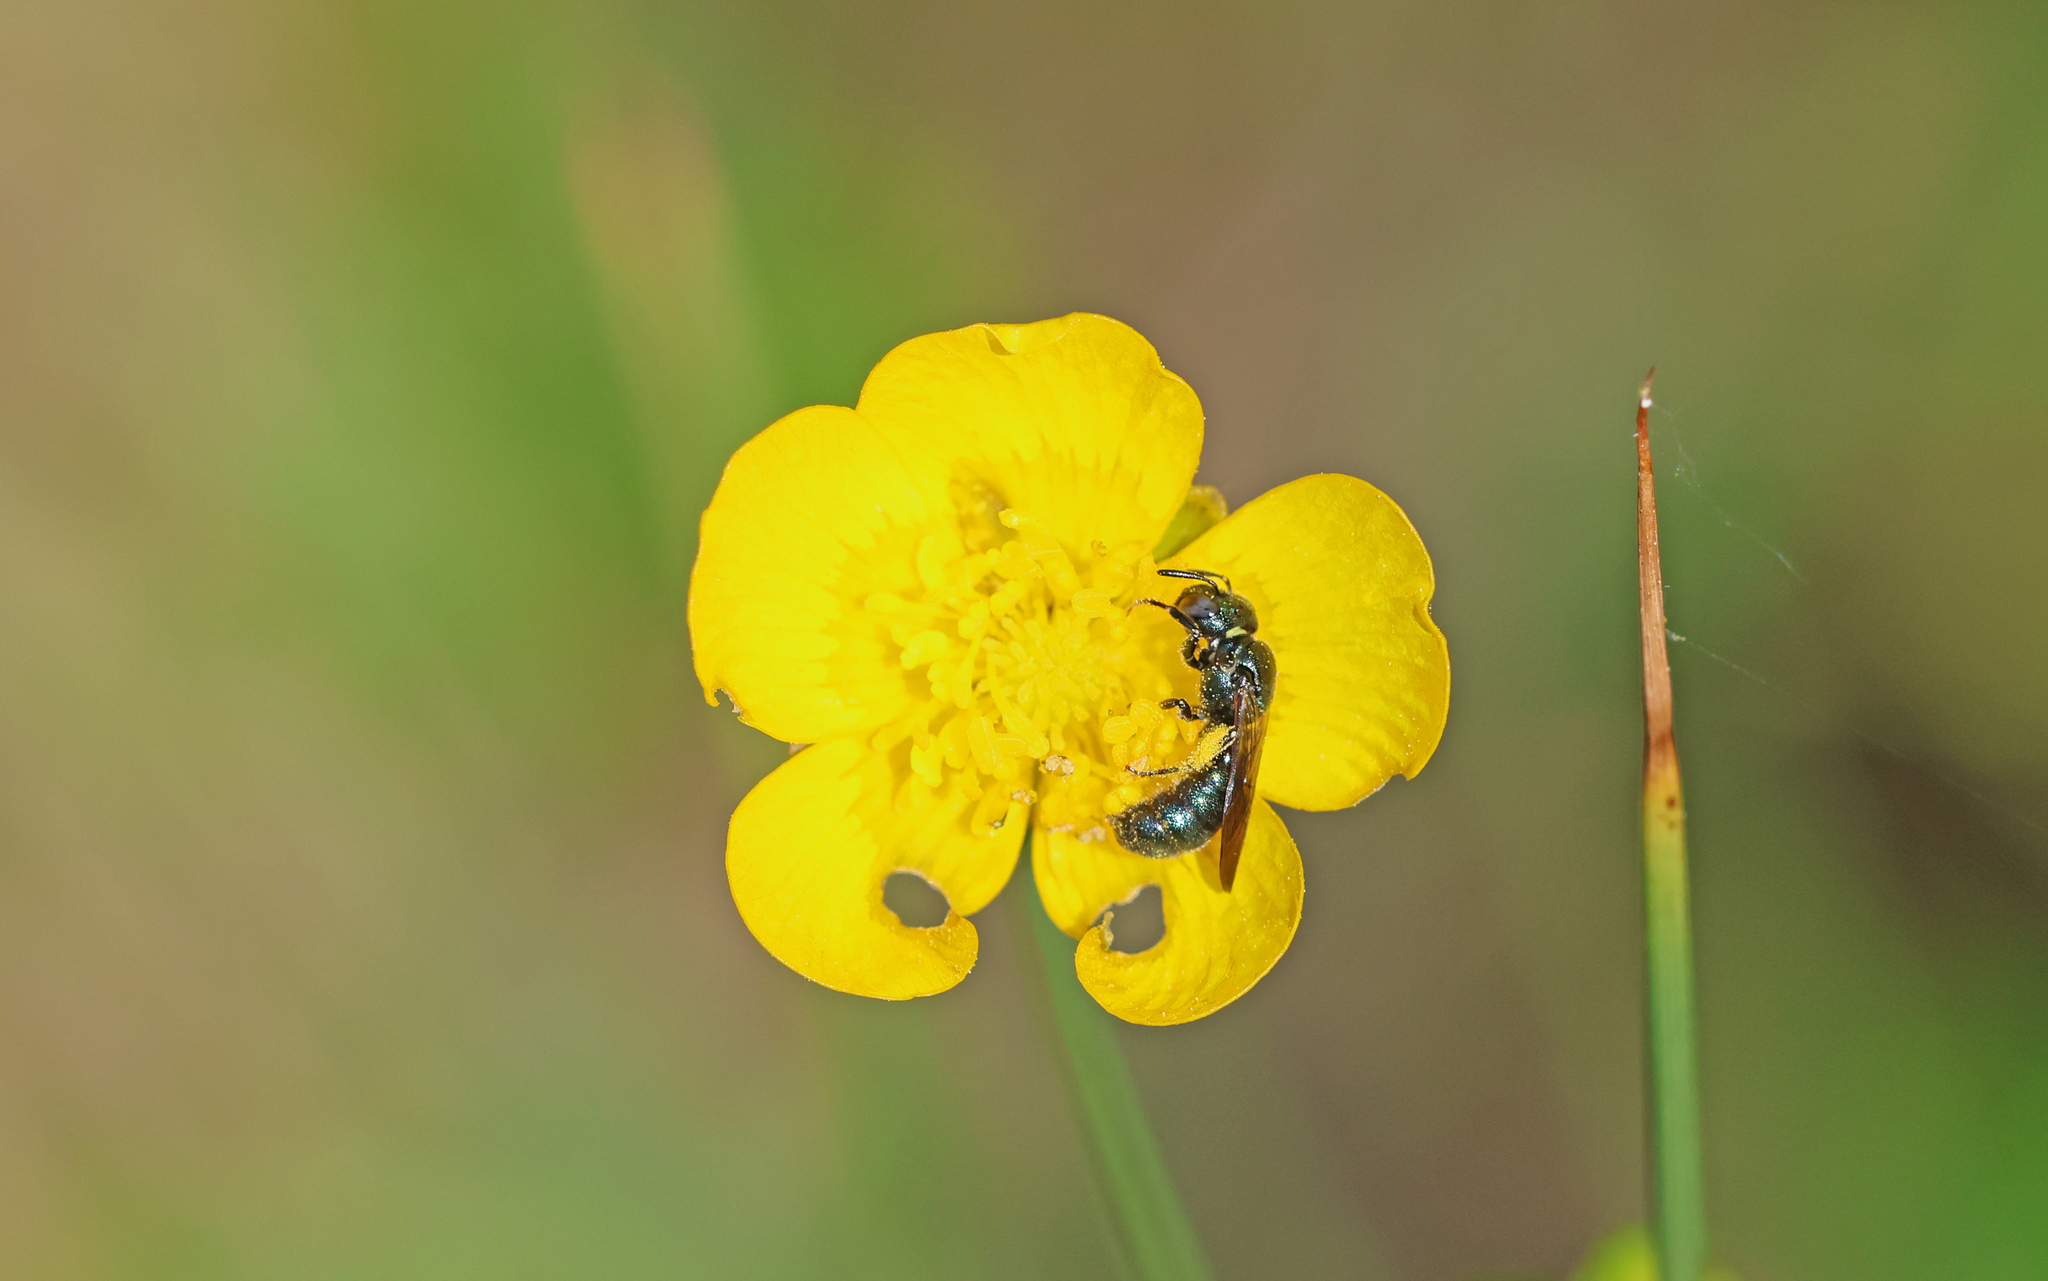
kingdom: Animalia
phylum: Arthropoda
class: Insecta
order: Hymenoptera
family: Apidae
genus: Ceratina
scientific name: Ceratina cyanea
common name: Little blue carpenter bee
